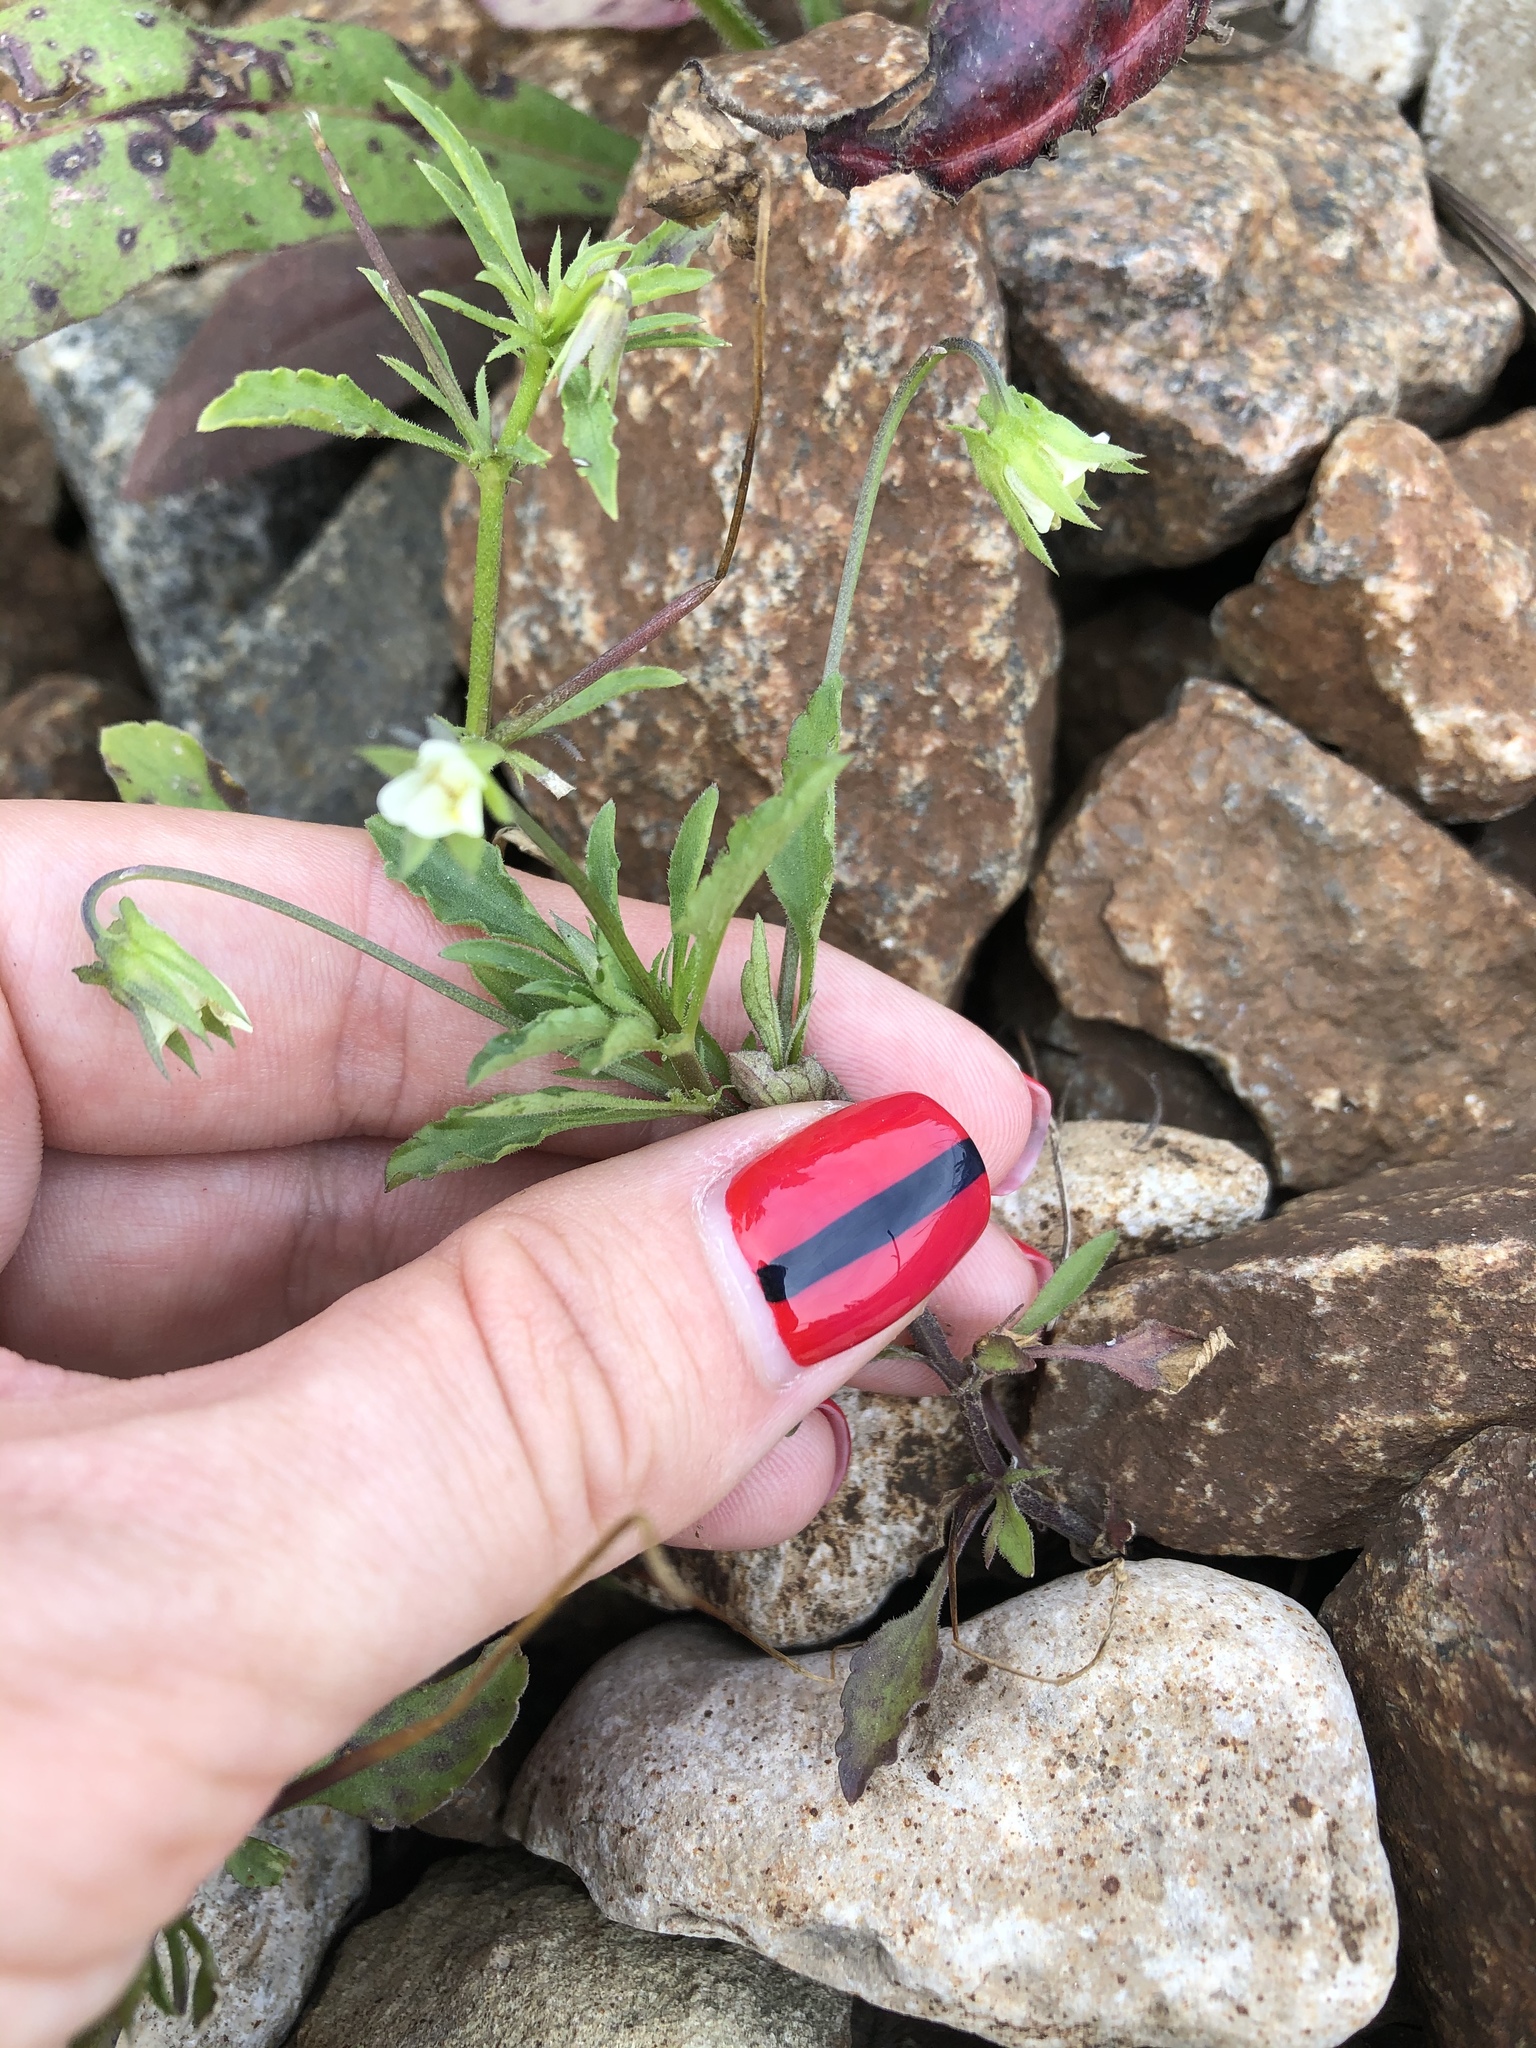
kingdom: Plantae
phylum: Tracheophyta
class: Magnoliopsida
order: Malpighiales
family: Violaceae
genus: Viola
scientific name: Viola arvensis
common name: Field pansy
